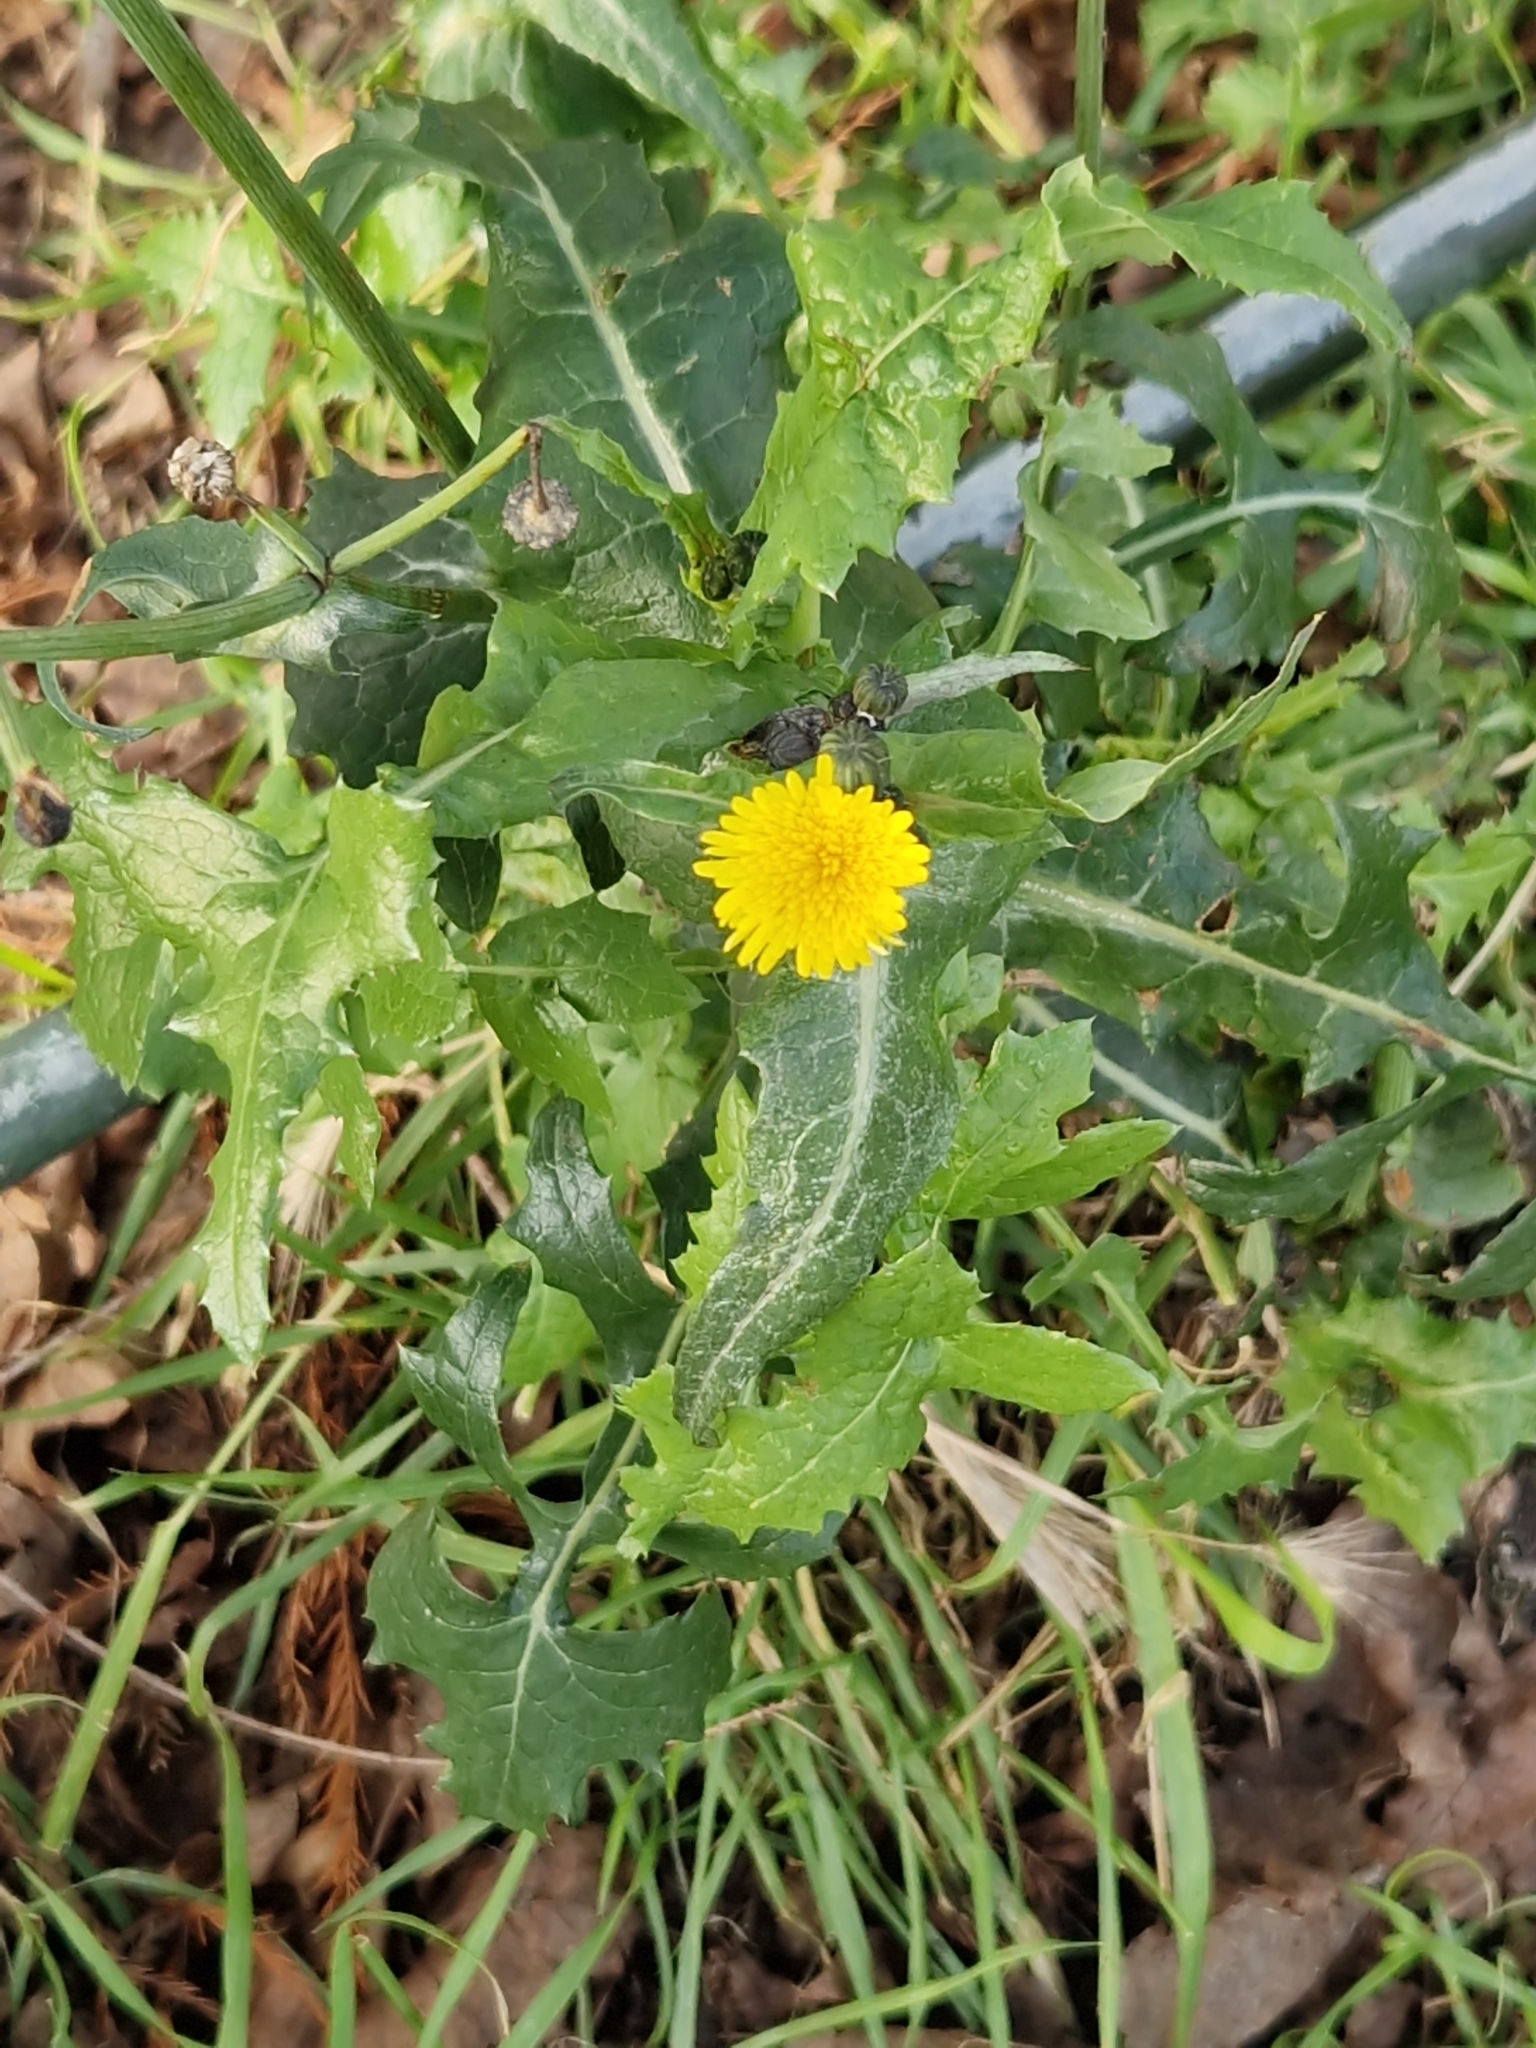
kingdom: Plantae
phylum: Tracheophyta
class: Magnoliopsida
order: Asterales
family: Asteraceae
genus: Sonchus
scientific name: Sonchus oleraceus
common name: Common sowthistle
